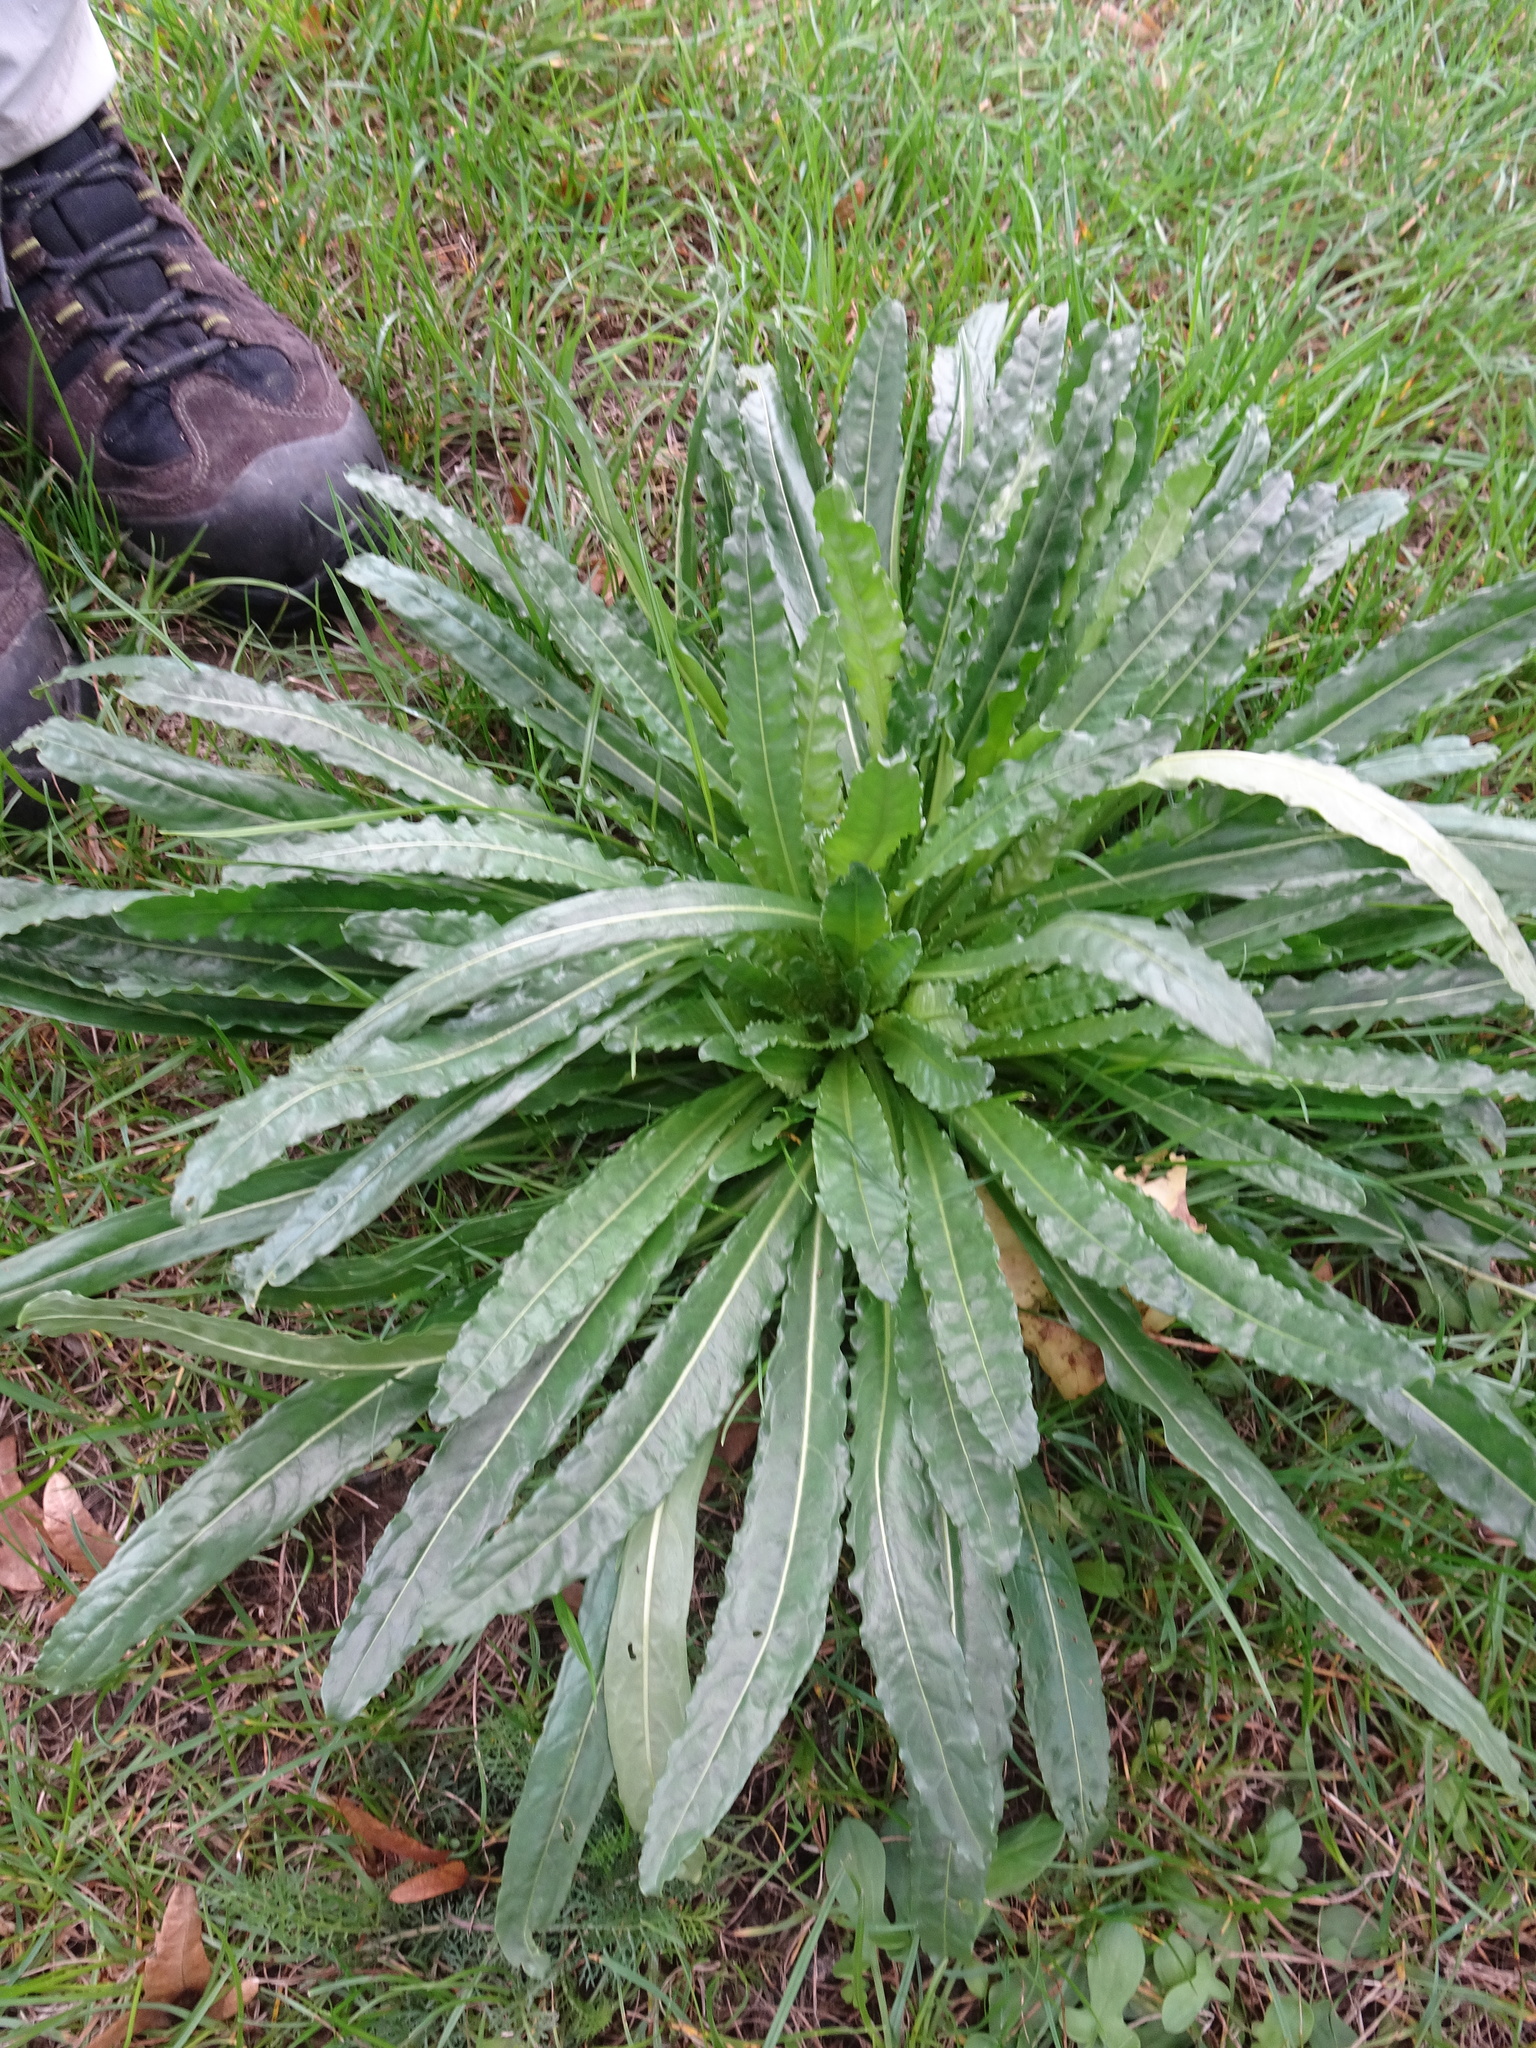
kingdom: Plantae
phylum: Tracheophyta
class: Magnoliopsida
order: Brassicales
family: Resedaceae
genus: Reseda
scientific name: Reseda luteola
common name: Weld
